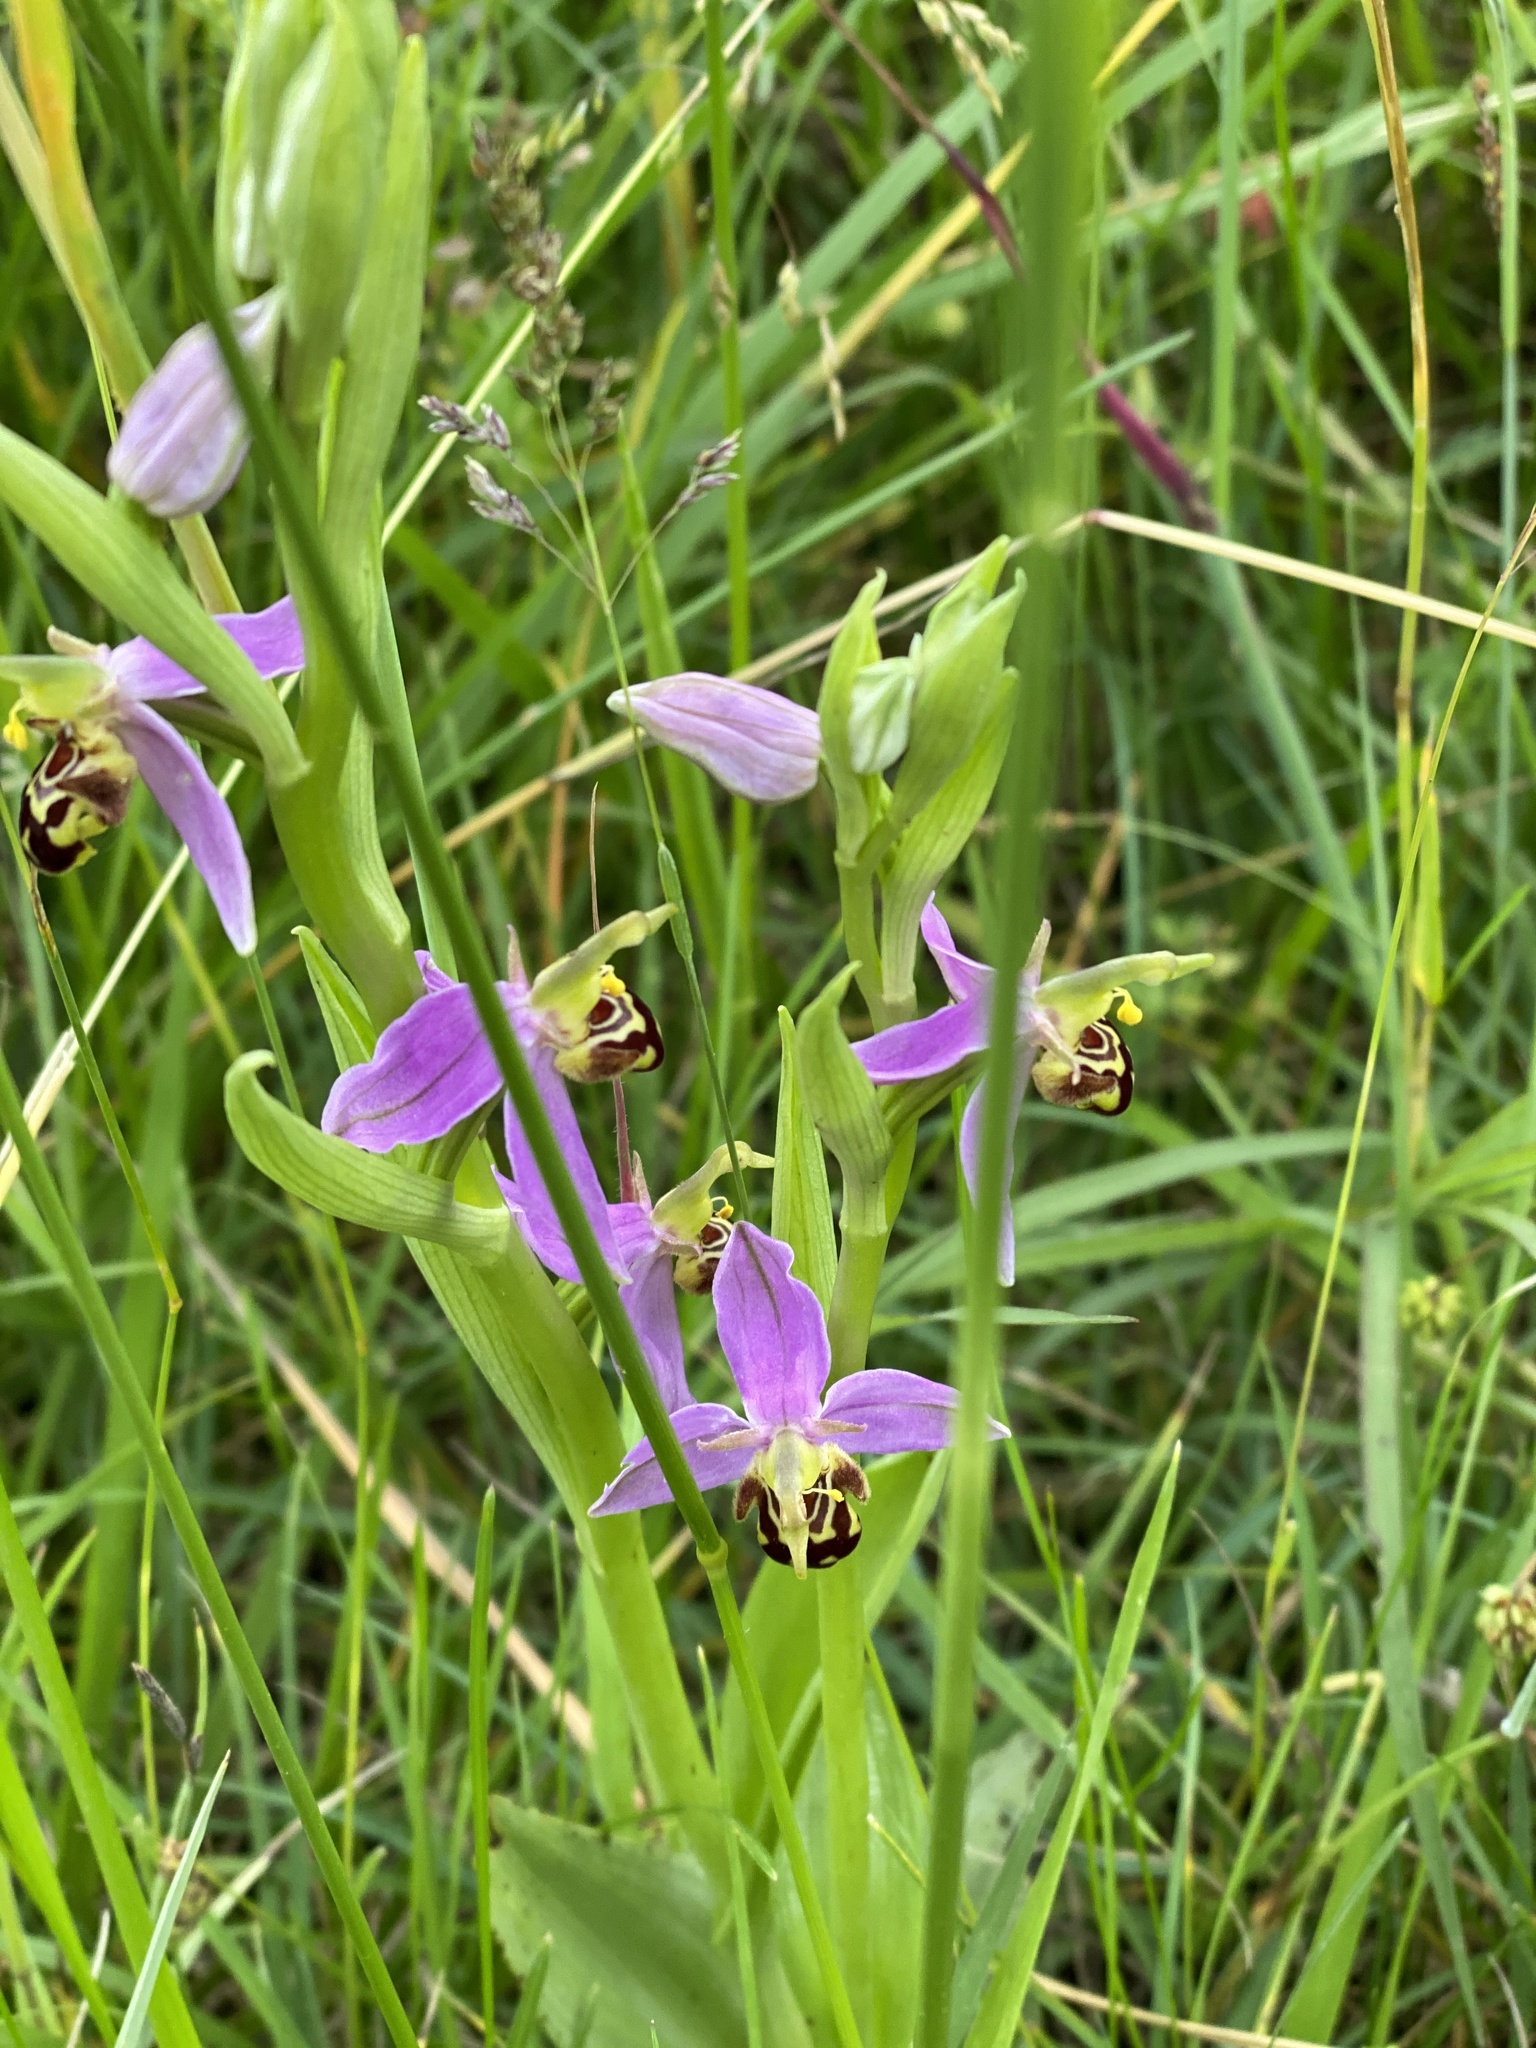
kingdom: Plantae
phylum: Tracheophyta
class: Liliopsida
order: Asparagales
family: Orchidaceae
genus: Ophrys
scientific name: Ophrys apifera
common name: Bee orchid
